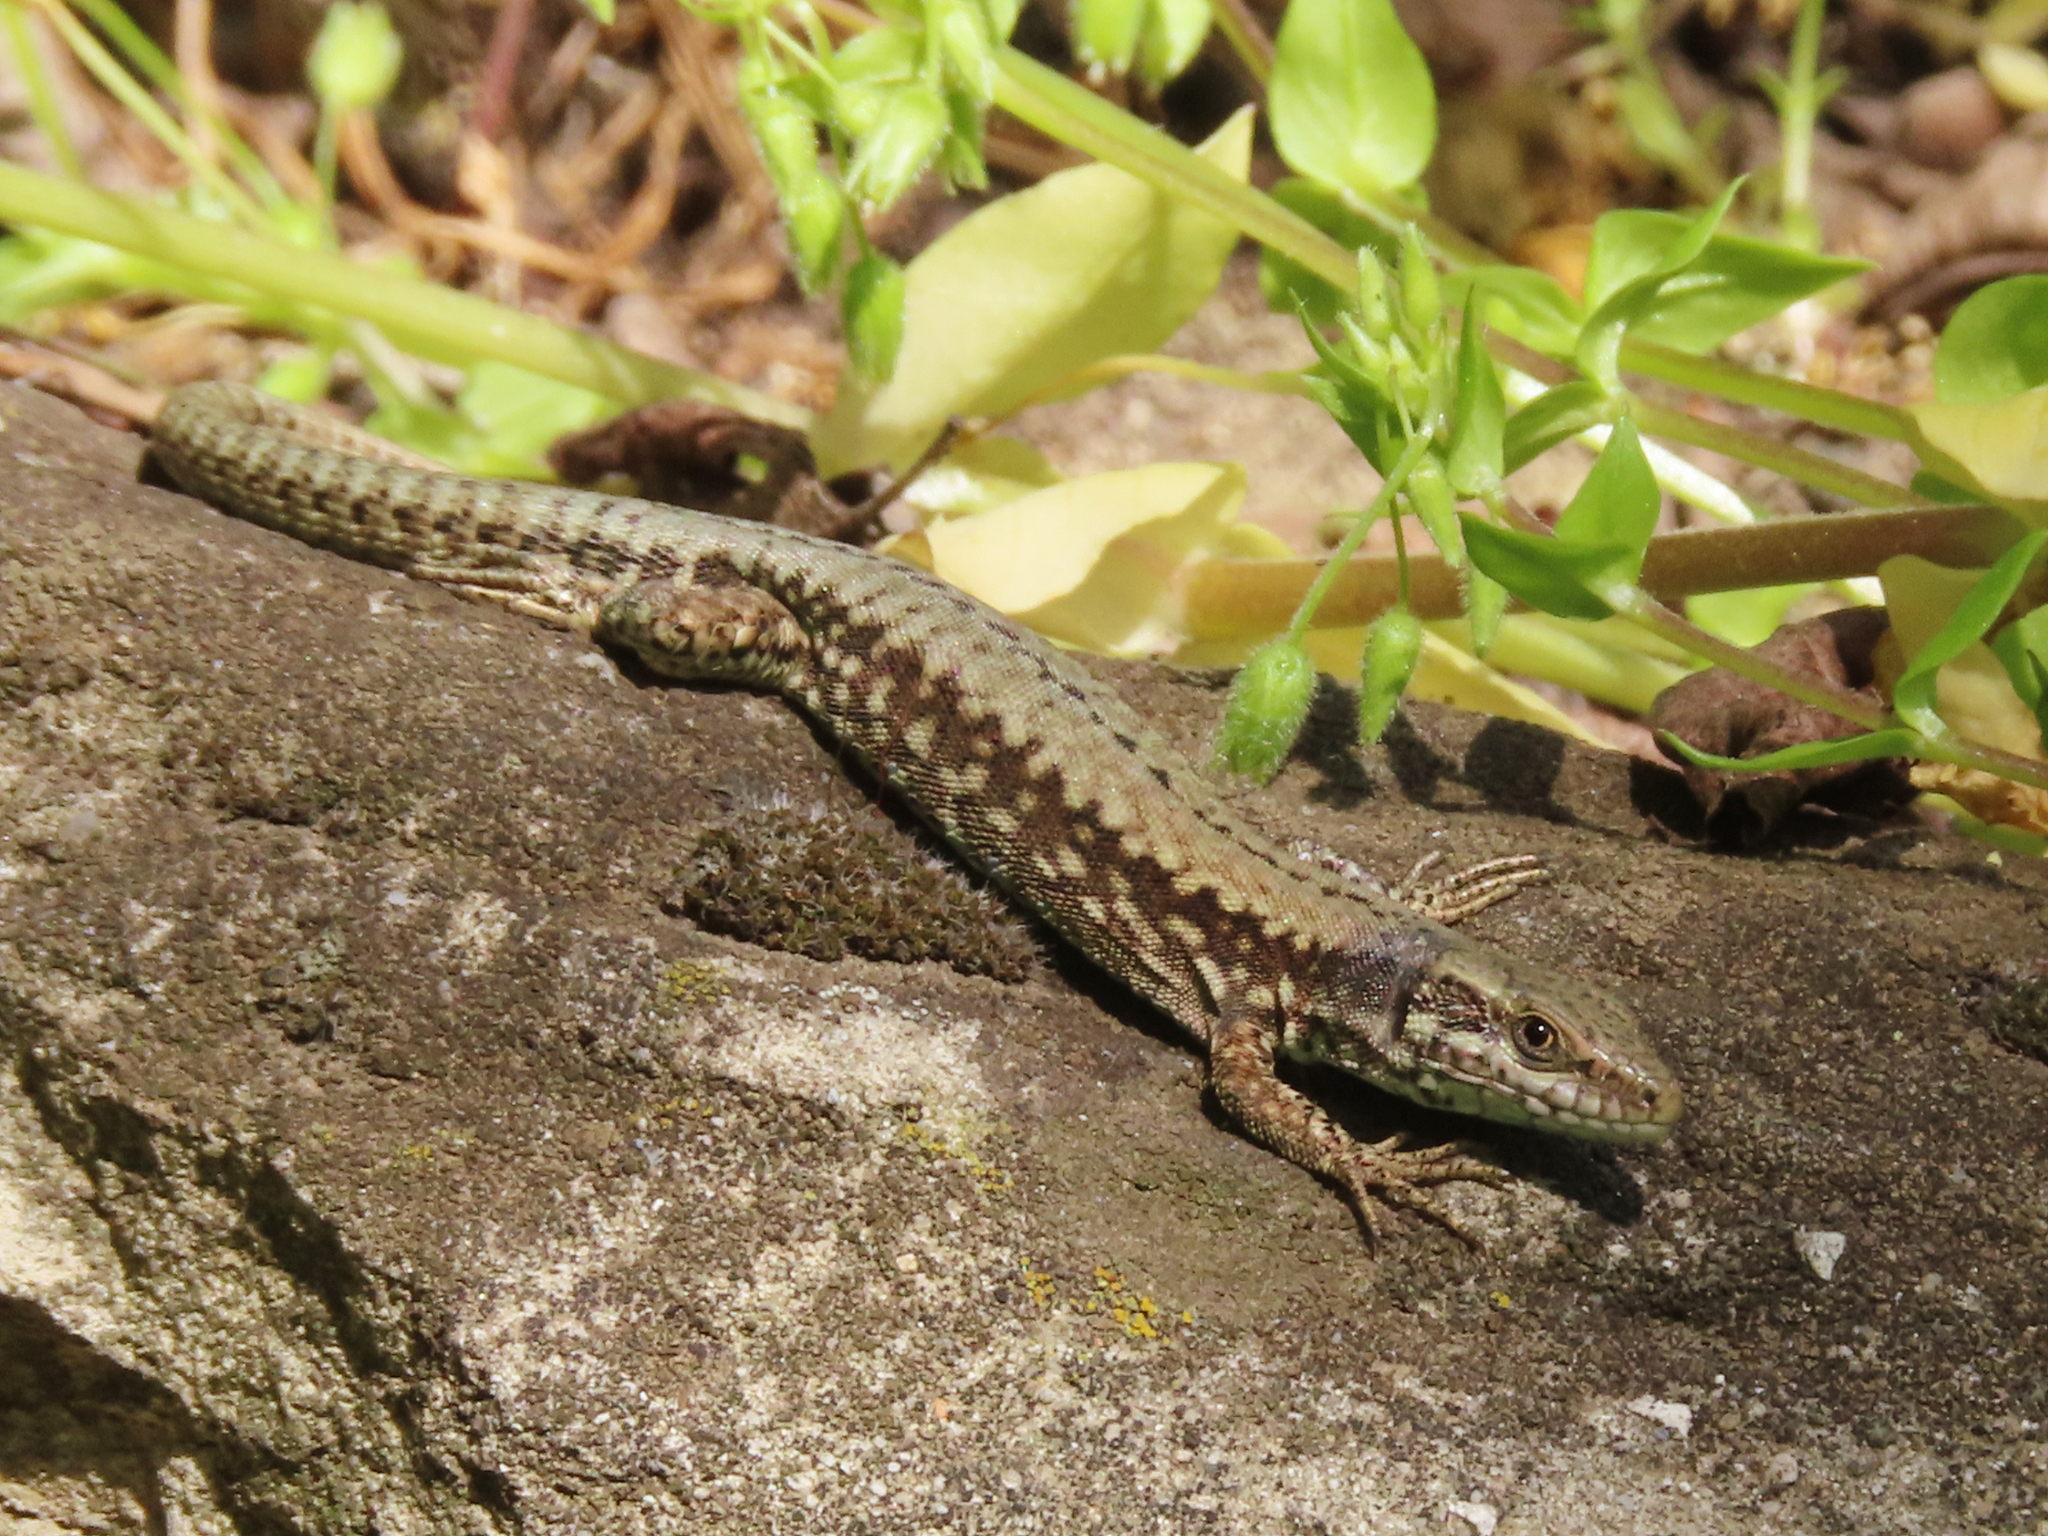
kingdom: Animalia
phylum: Chordata
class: Squamata
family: Lacertidae
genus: Podarcis
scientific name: Podarcis muralis
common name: Common wall lizard
